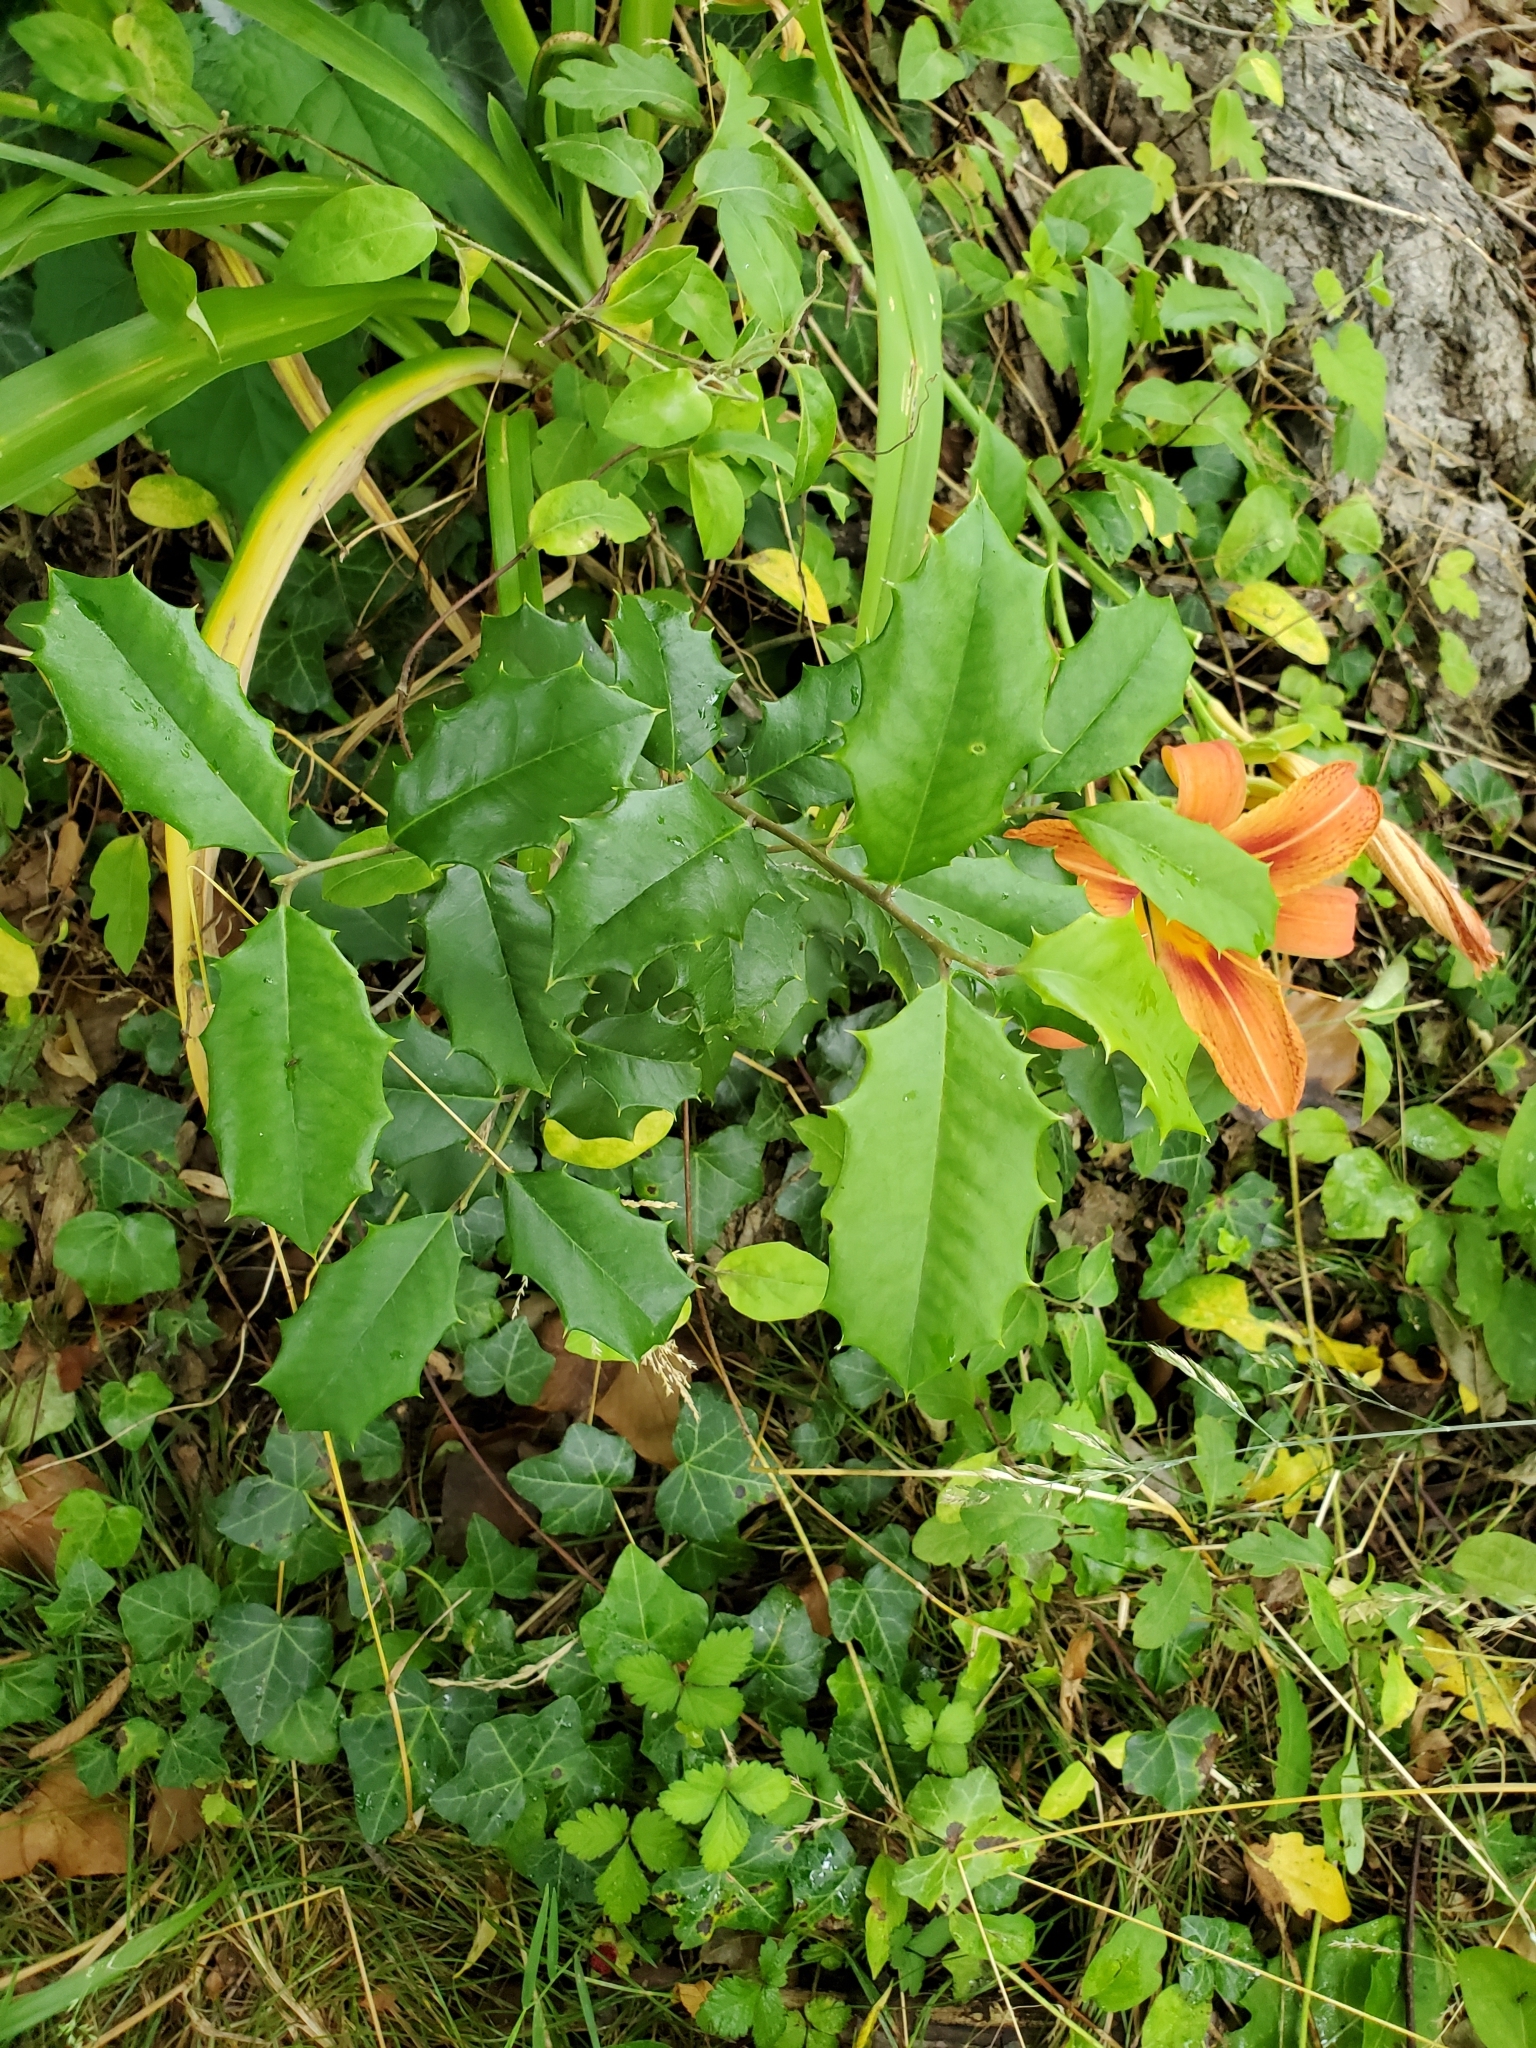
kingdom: Plantae
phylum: Tracheophyta
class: Magnoliopsida
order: Aquifoliales
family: Aquifoliaceae
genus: Ilex
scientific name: Ilex opaca
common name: American holly
